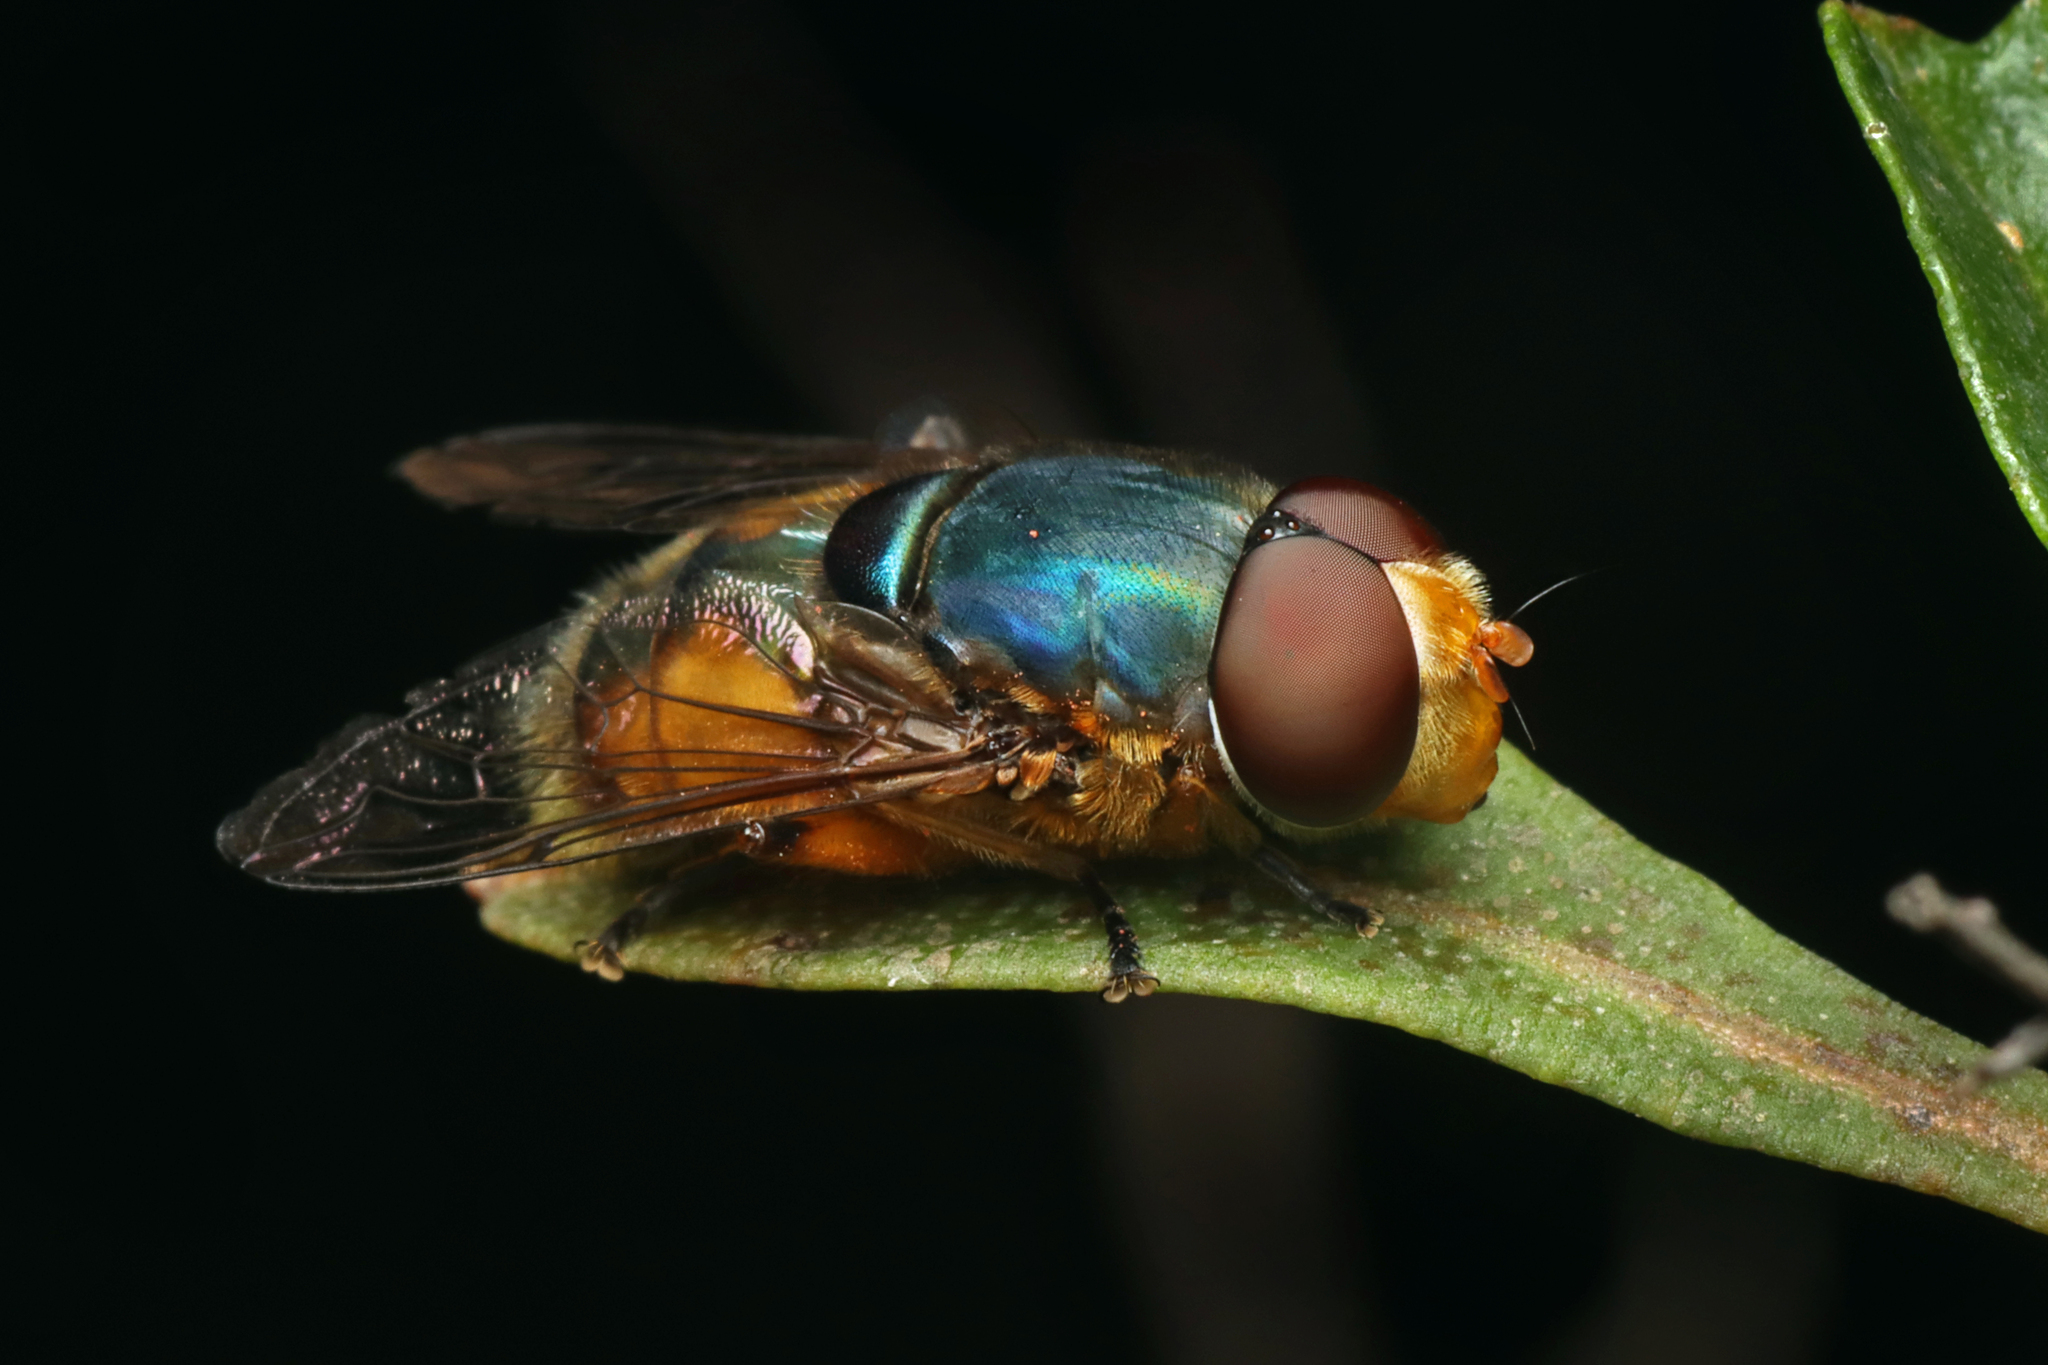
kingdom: Animalia
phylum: Arthropoda
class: Insecta
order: Diptera
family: Syrphidae
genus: Austalis
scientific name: Austalis copiosa
